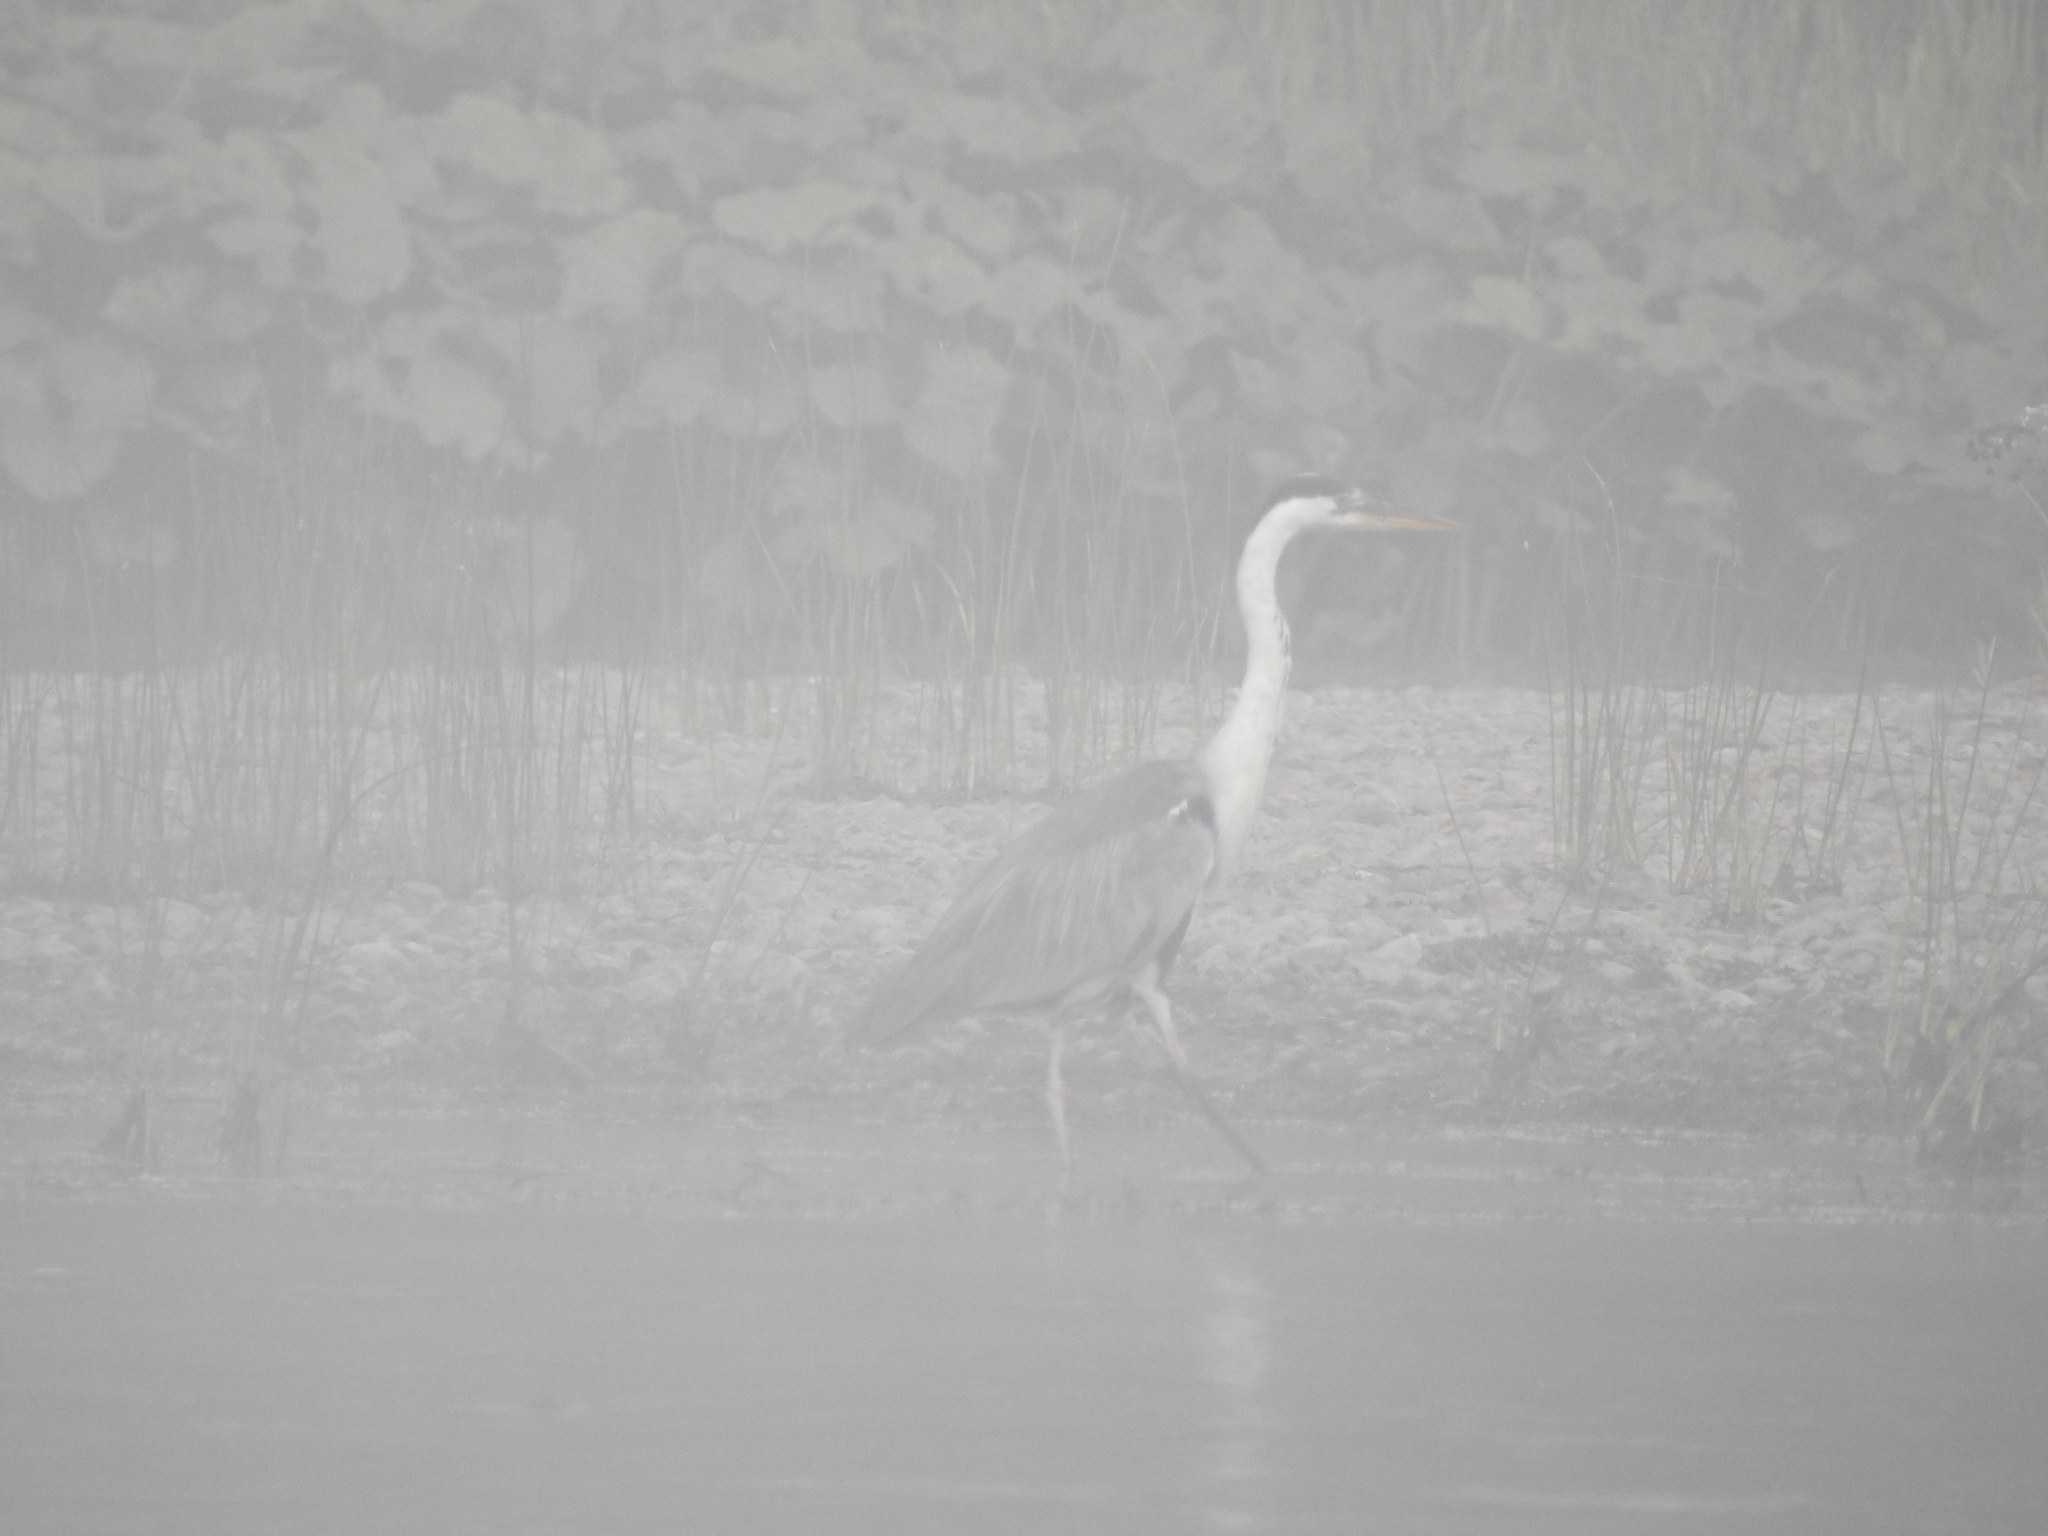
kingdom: Animalia
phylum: Chordata
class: Aves
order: Pelecaniformes
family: Ardeidae
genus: Ardea
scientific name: Ardea cinerea
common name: Grey heron
